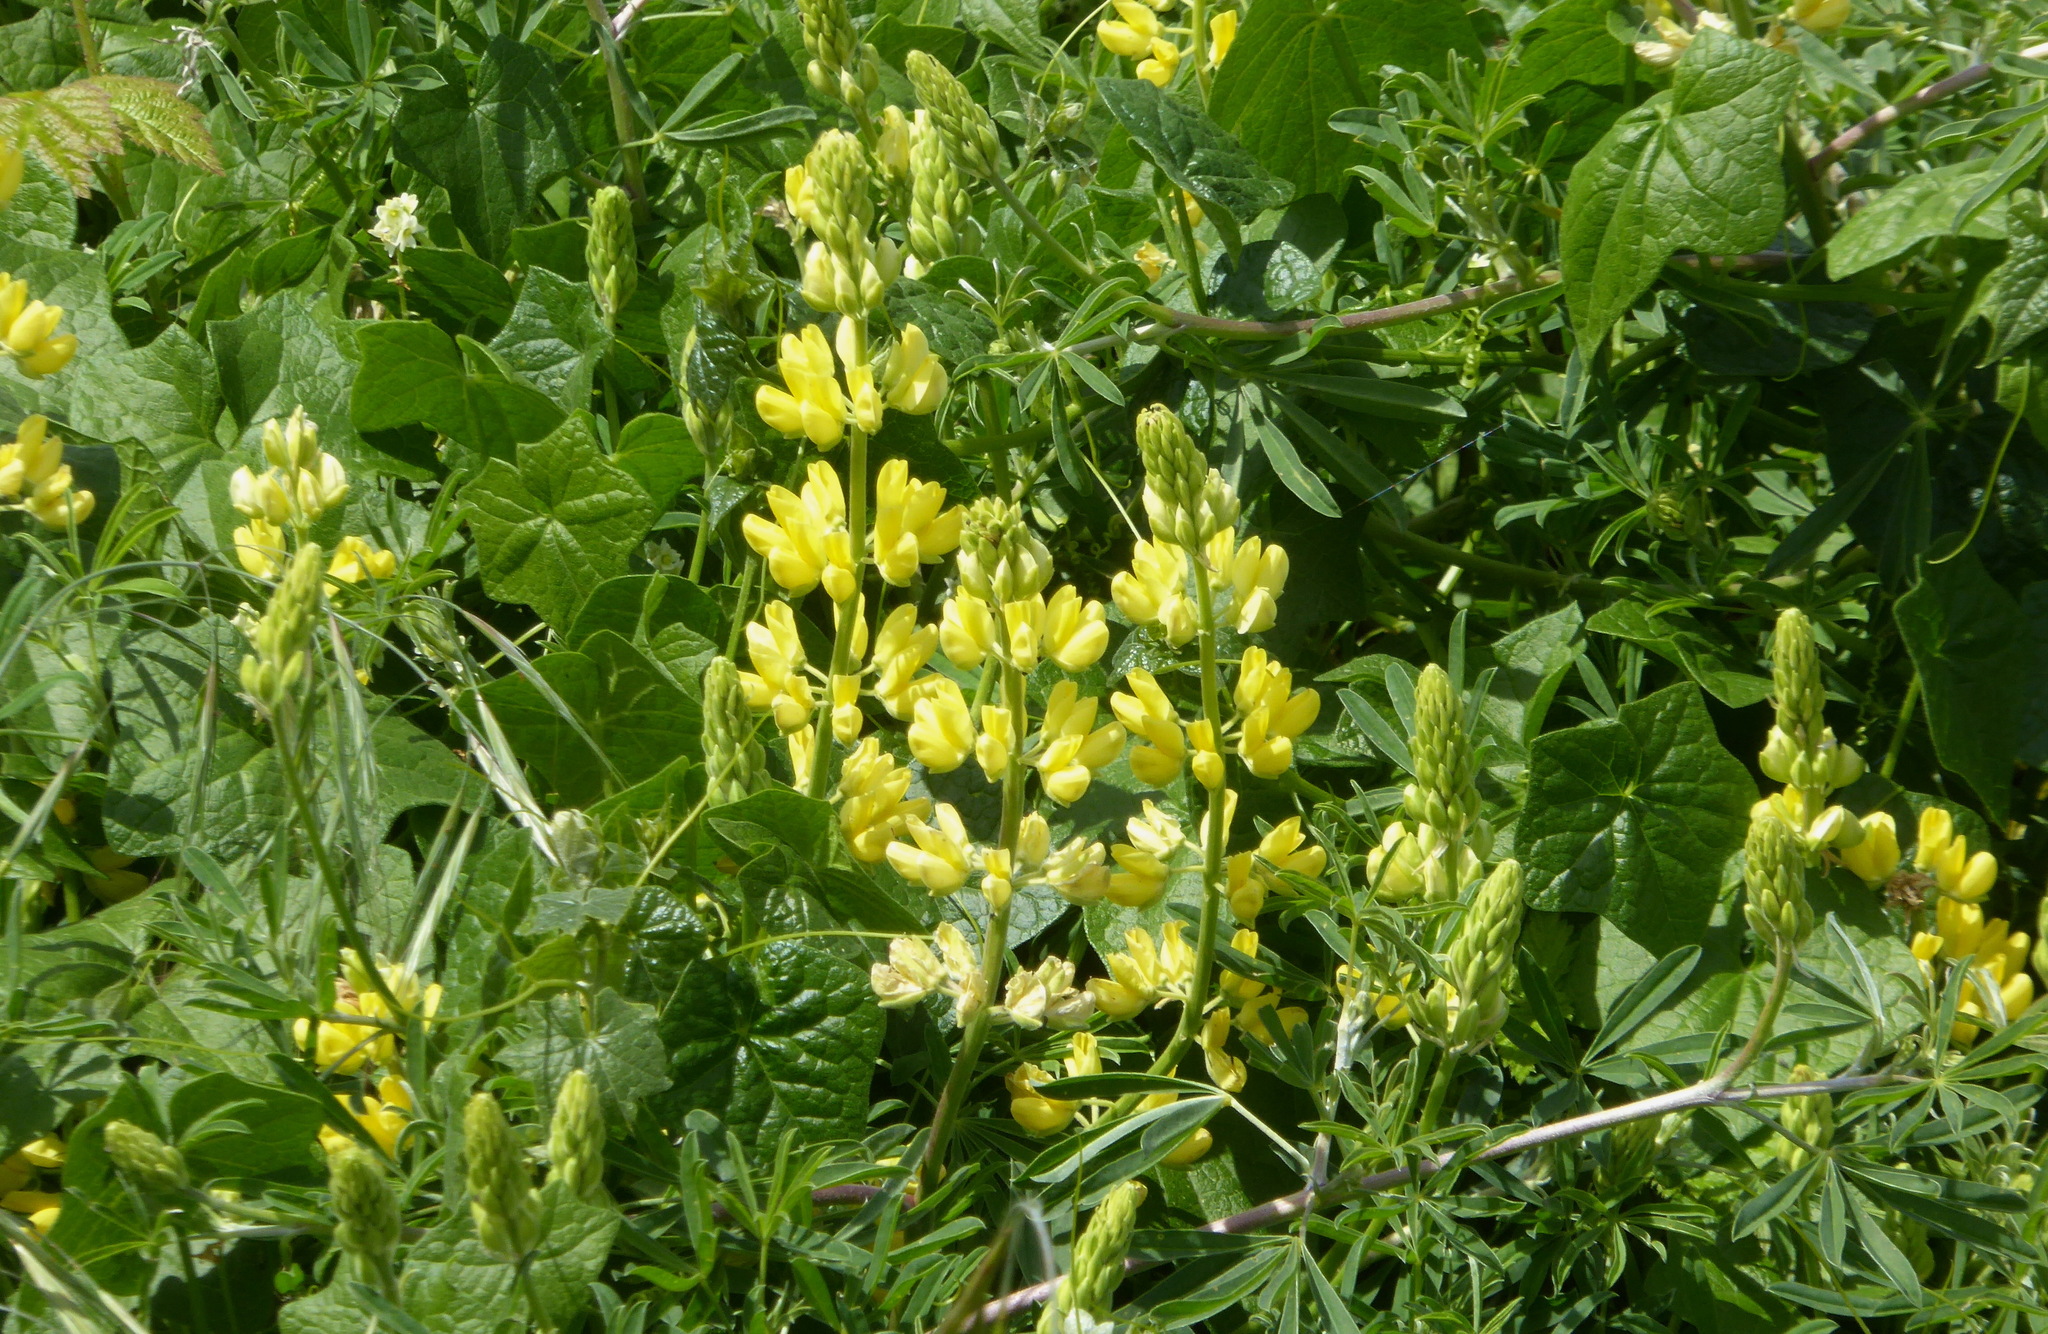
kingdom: Plantae
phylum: Tracheophyta
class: Magnoliopsida
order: Fabales
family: Fabaceae
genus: Lupinus
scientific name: Lupinus arboreus
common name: Yellow bush lupine
